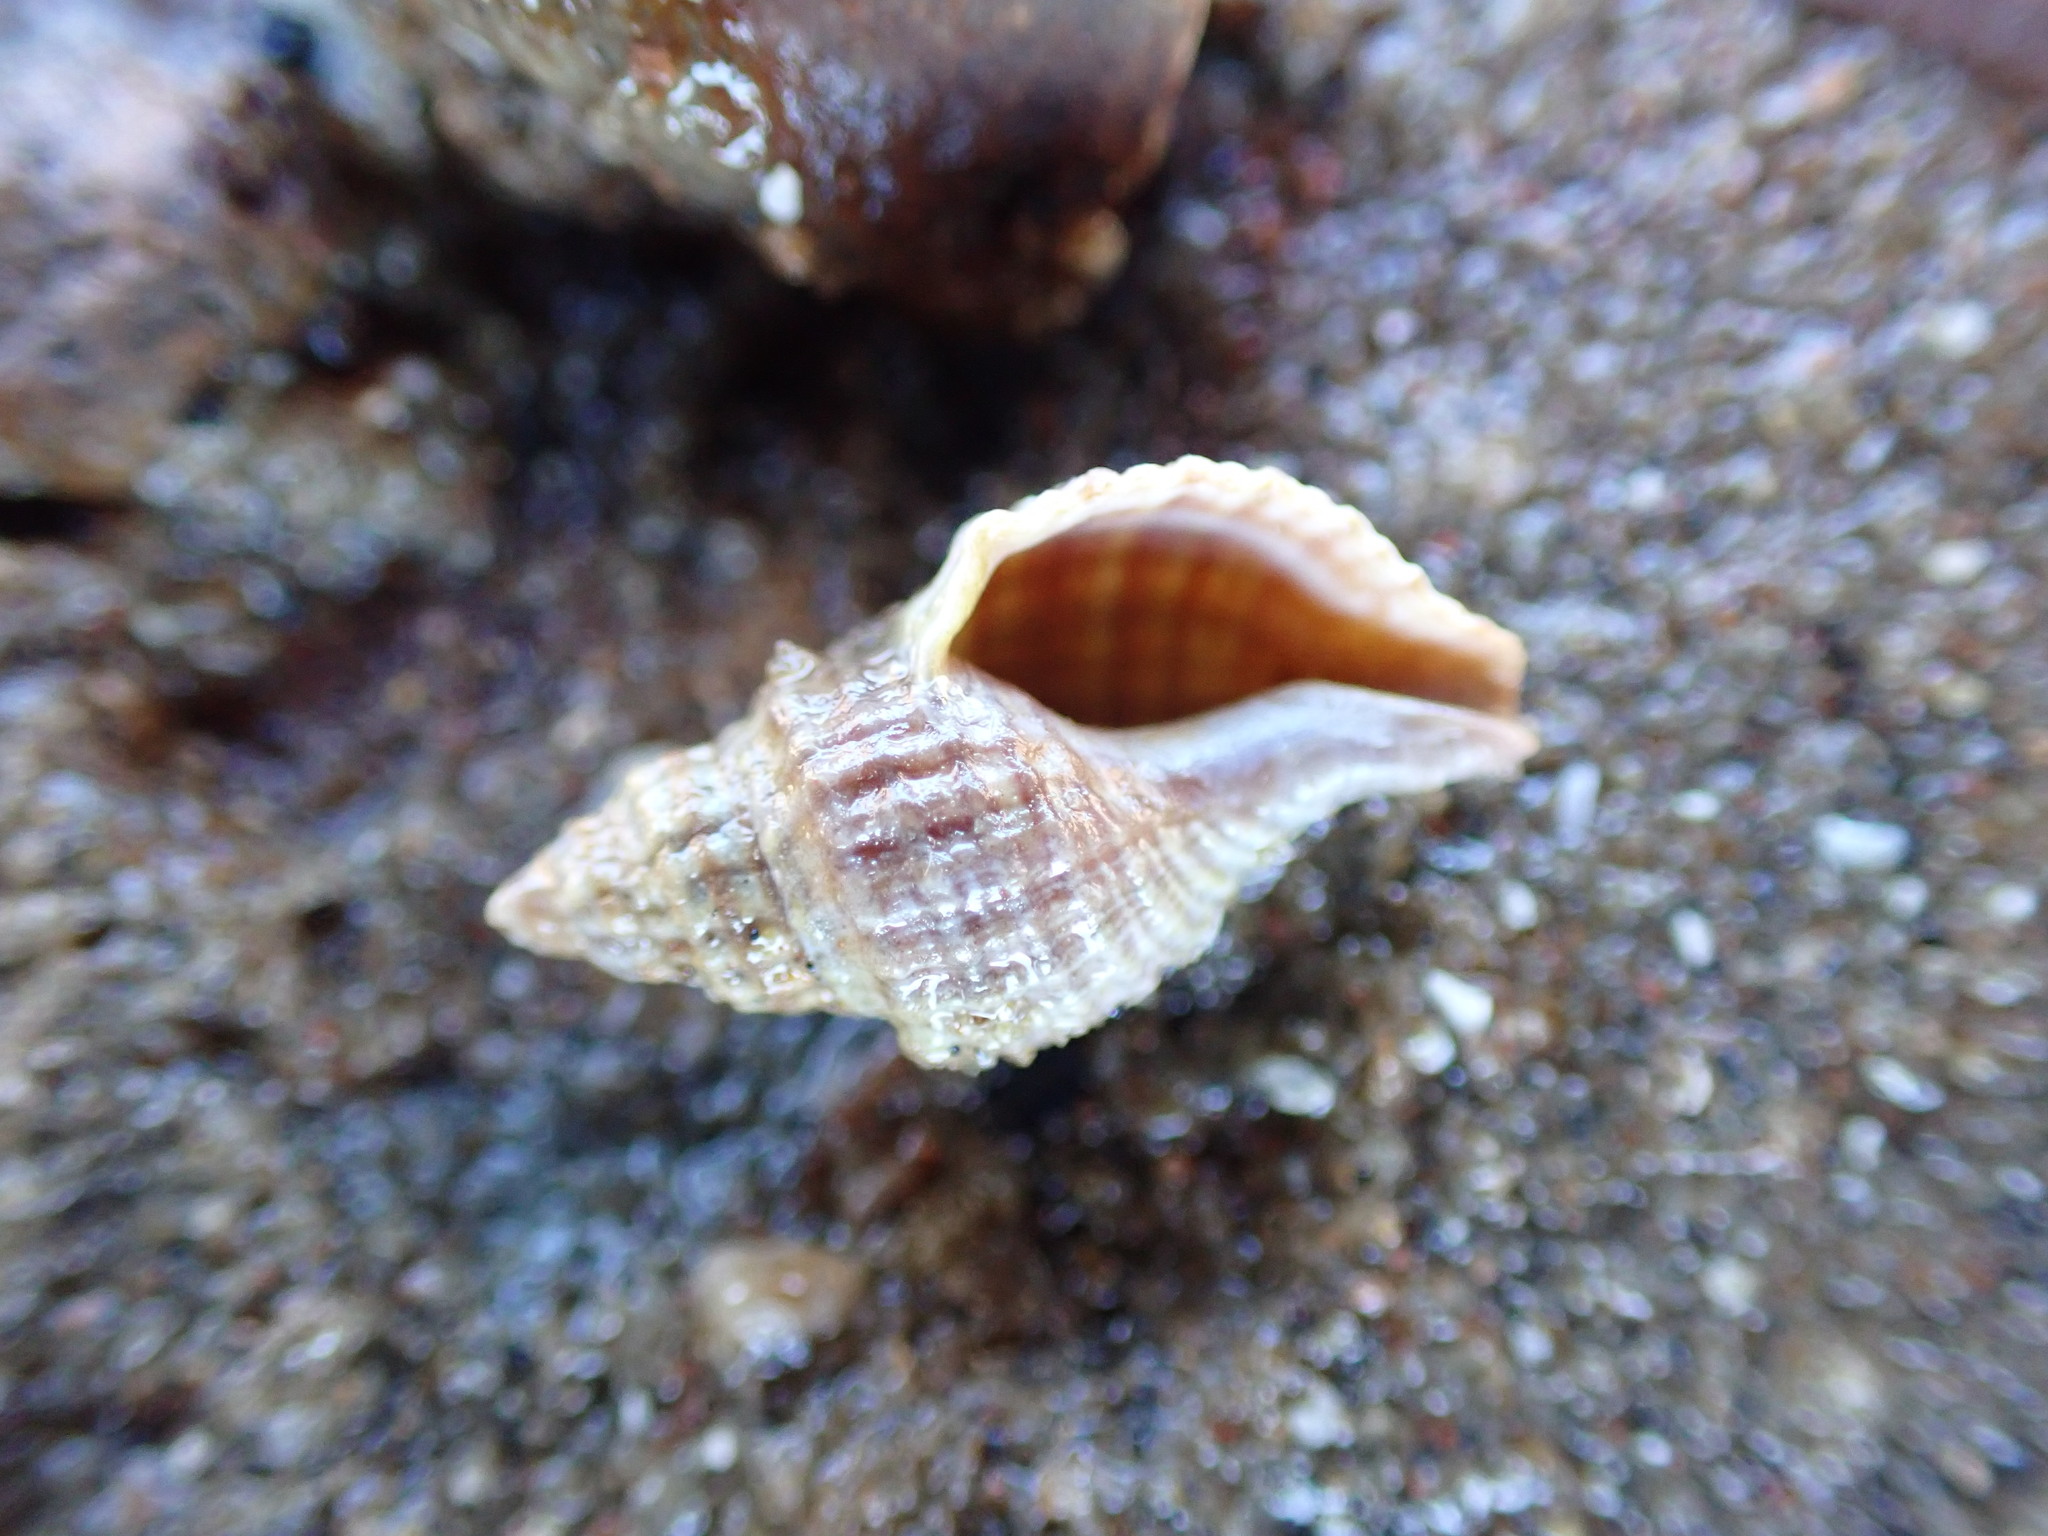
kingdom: Animalia
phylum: Mollusca
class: Gastropoda
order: Neogastropoda
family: Muricidae
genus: Xymene
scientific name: Xymene plebeius
